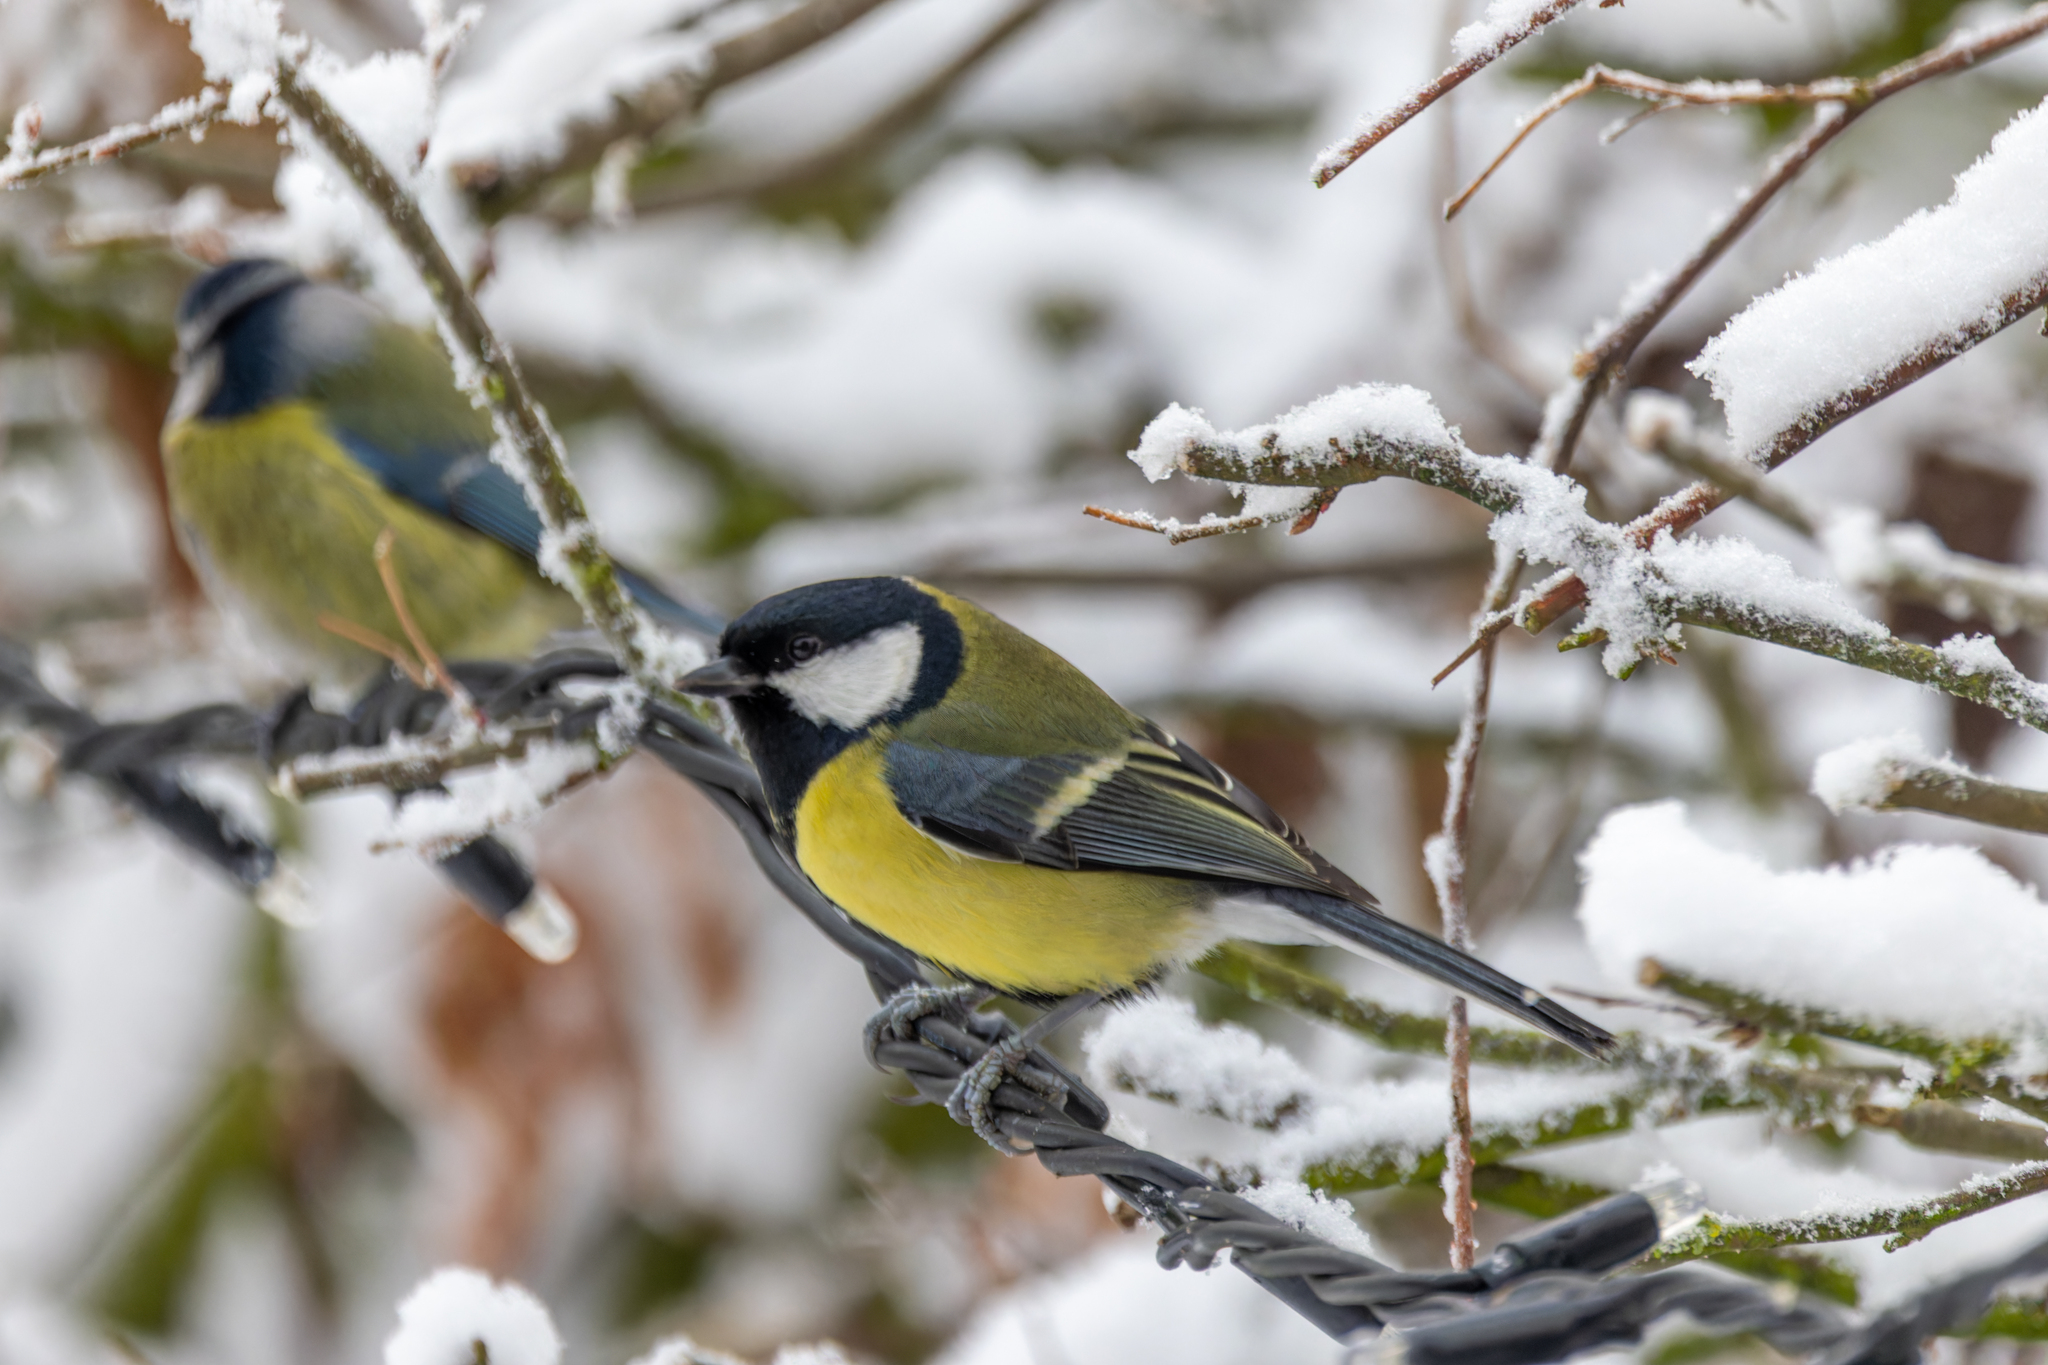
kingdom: Animalia
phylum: Chordata
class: Aves
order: Passeriformes
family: Paridae
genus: Parus
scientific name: Parus major
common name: Great tit
